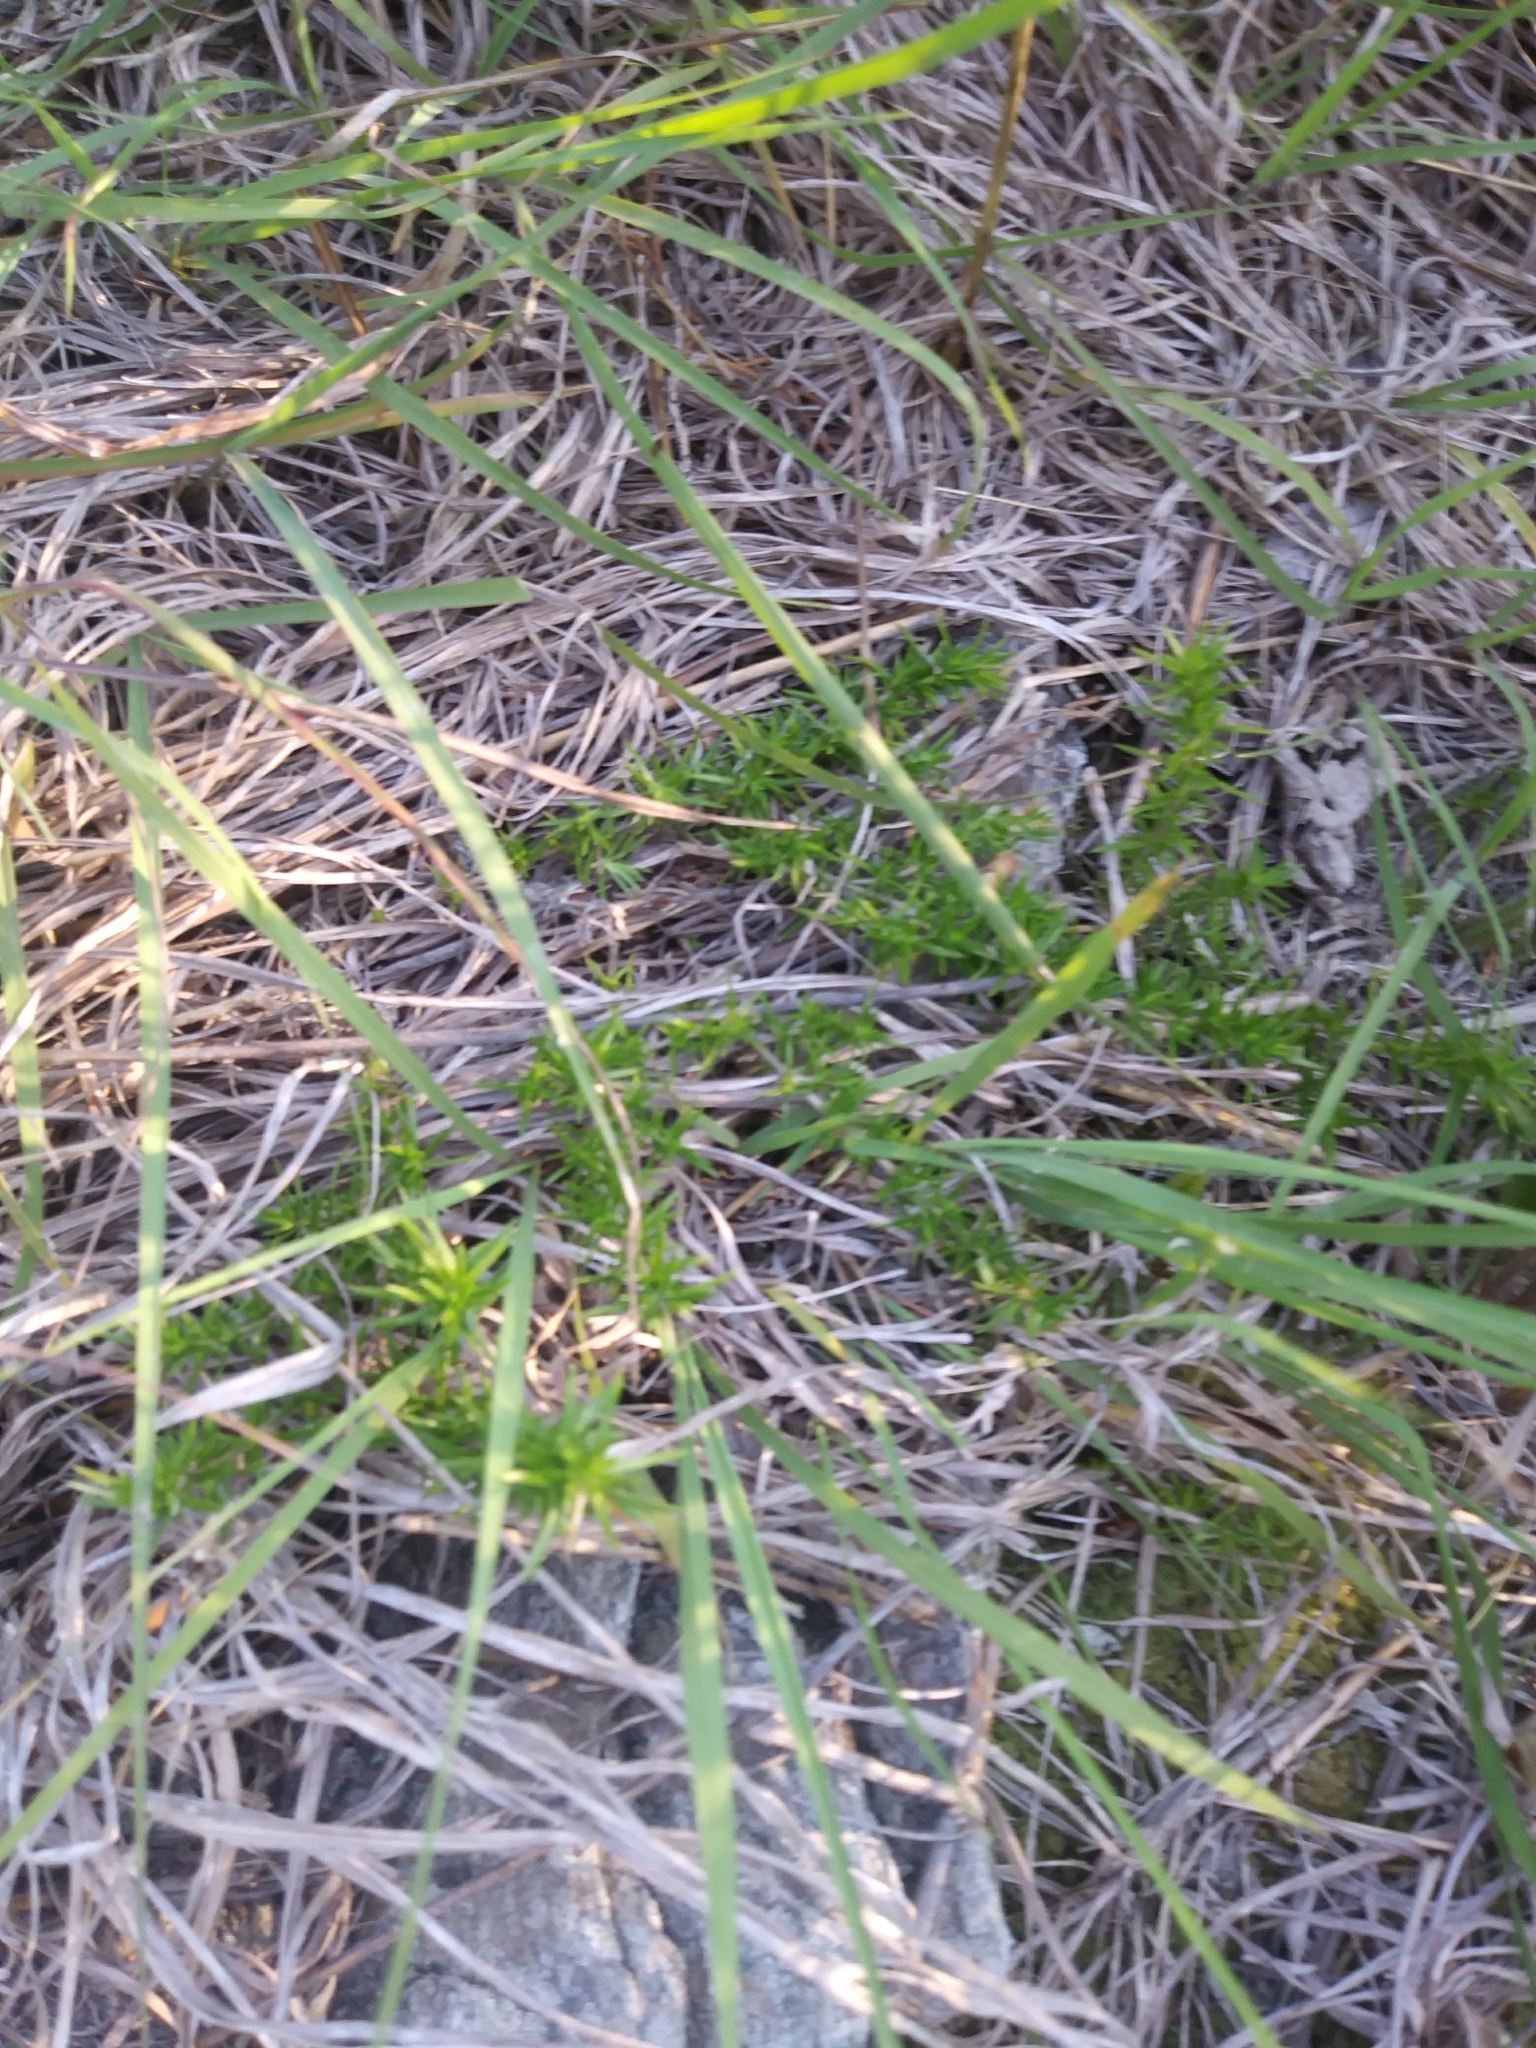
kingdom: Plantae
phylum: Tracheophyta
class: Magnoliopsida
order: Ericales
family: Polemoniaceae
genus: Phlox
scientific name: Phlox subulata
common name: Moss phlox
